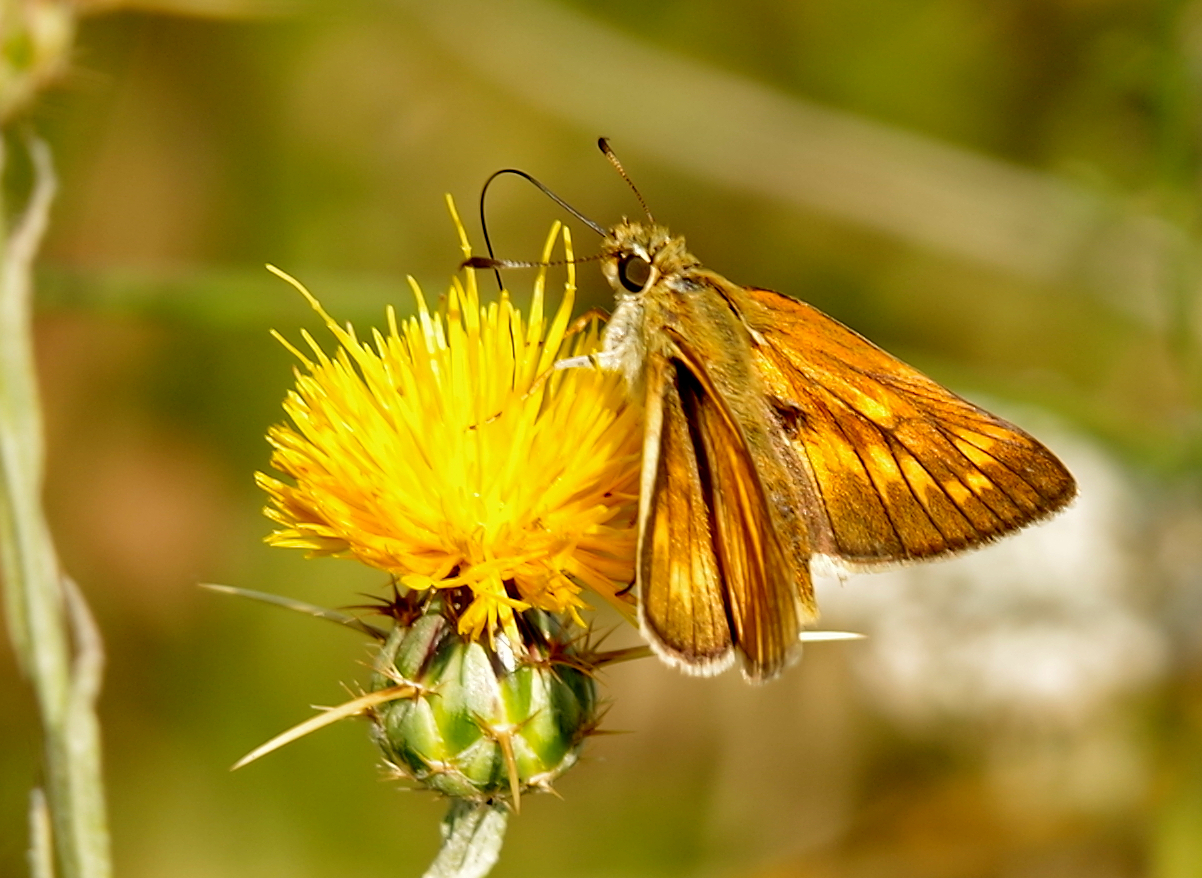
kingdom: Animalia
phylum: Arthropoda
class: Insecta
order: Lepidoptera
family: Hesperiidae
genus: Ochlodes
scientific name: Ochlodes venata
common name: Large skipper
